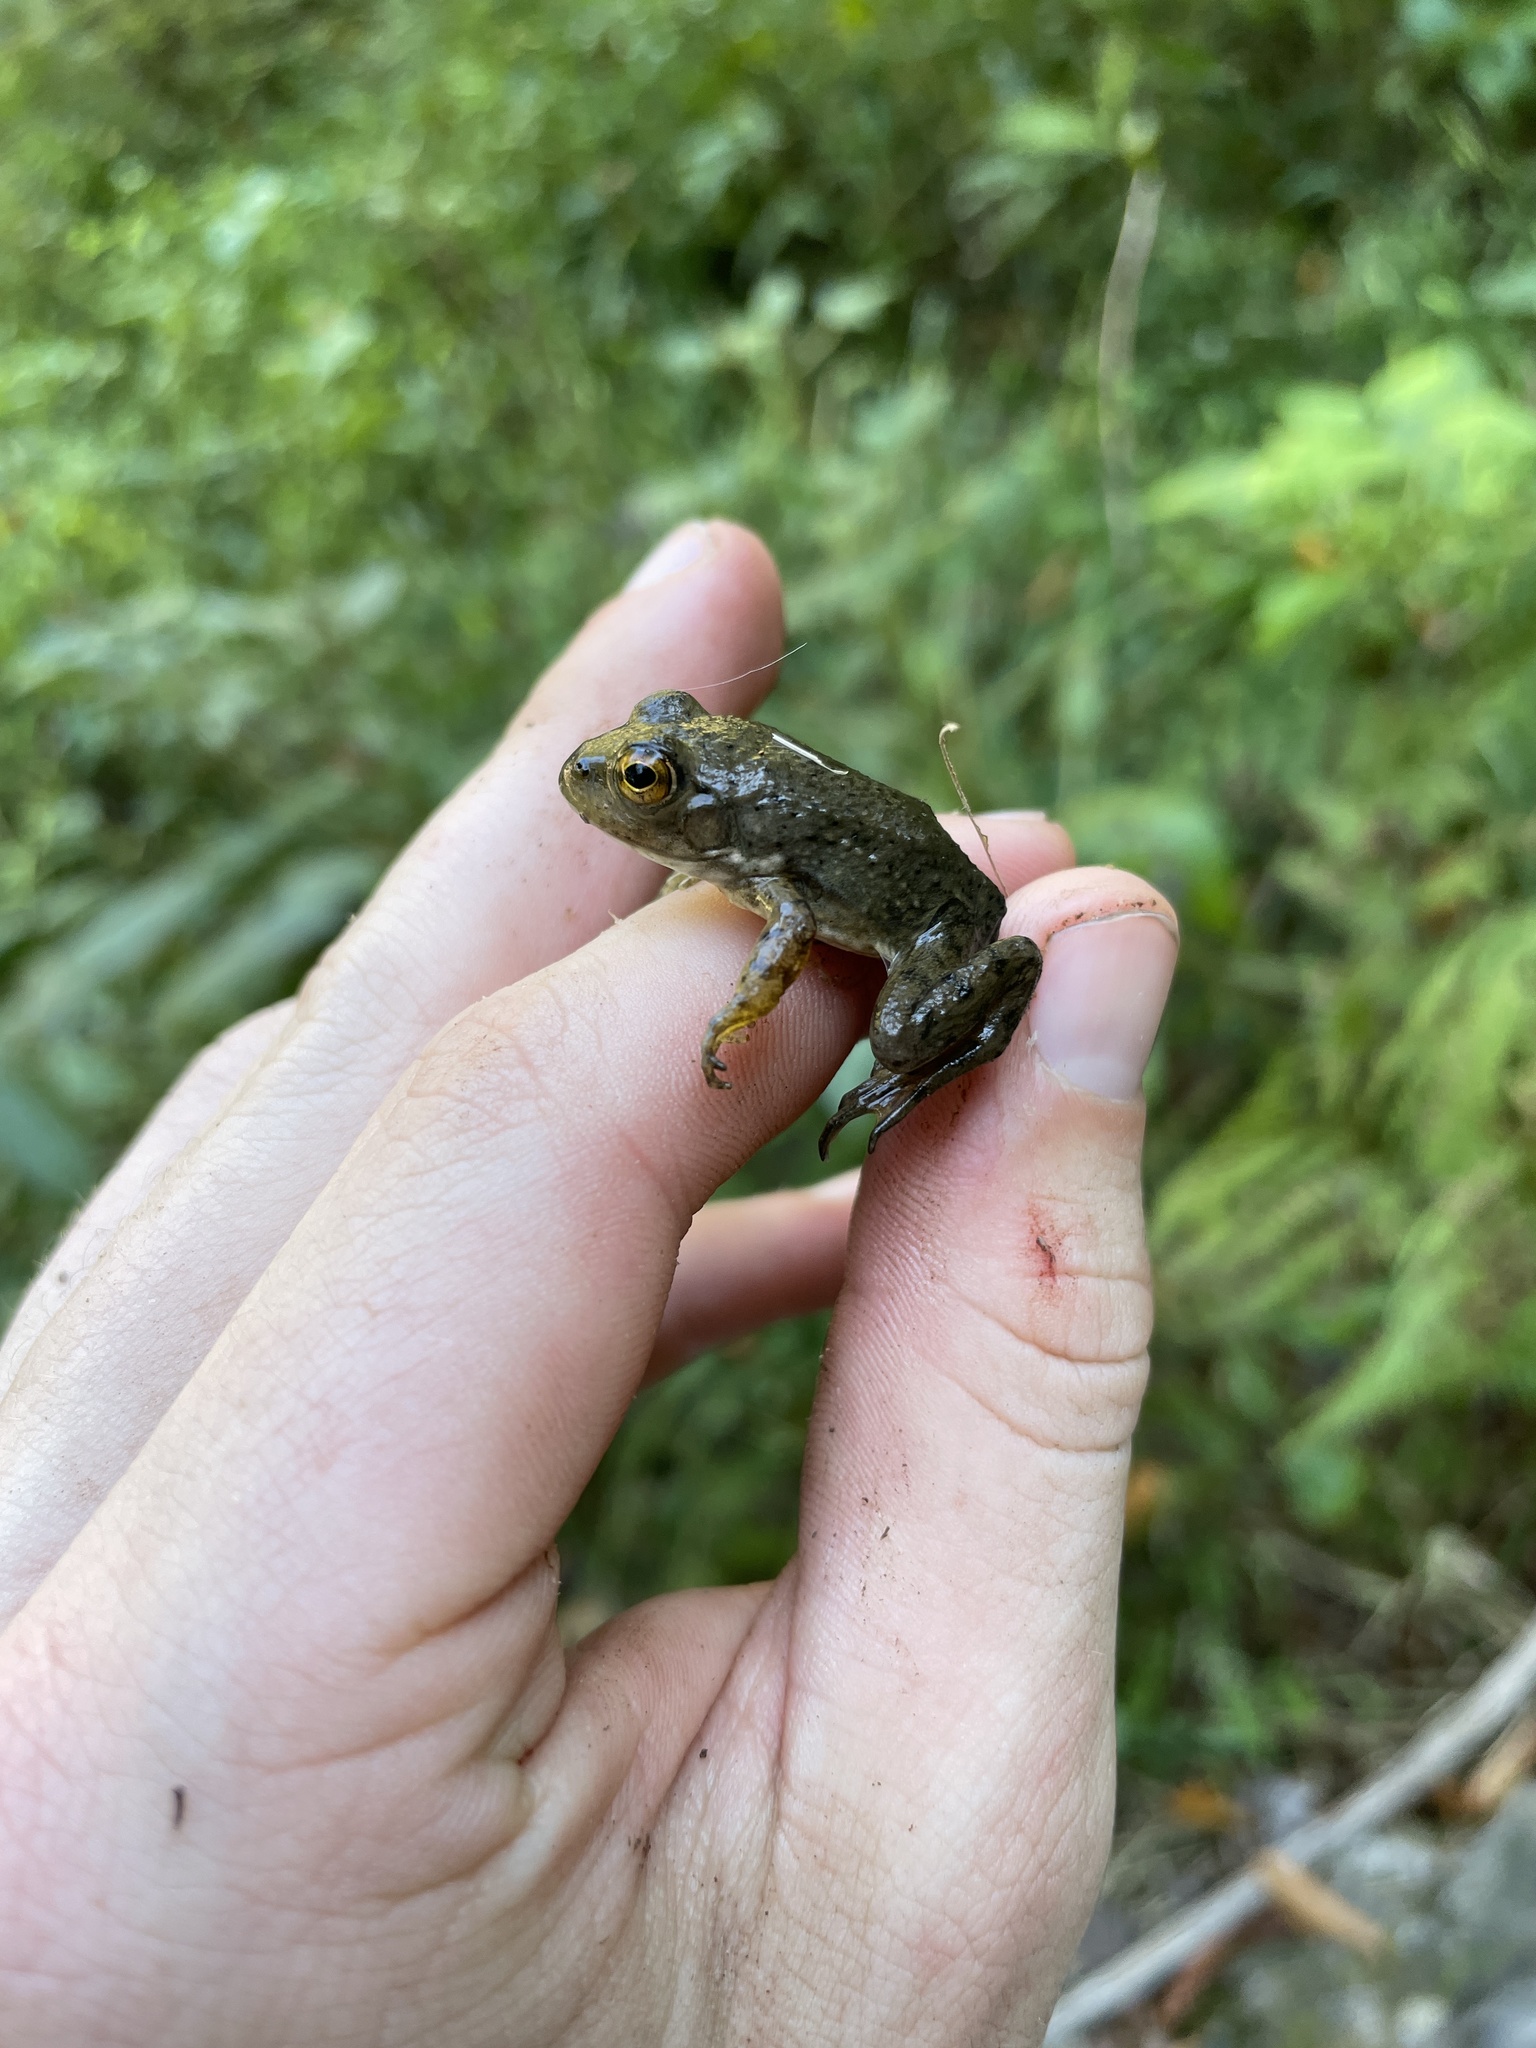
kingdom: Animalia
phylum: Chordata
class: Amphibia
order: Anura
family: Ranidae
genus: Lithobates
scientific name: Lithobates catesbeianus
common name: American bullfrog
